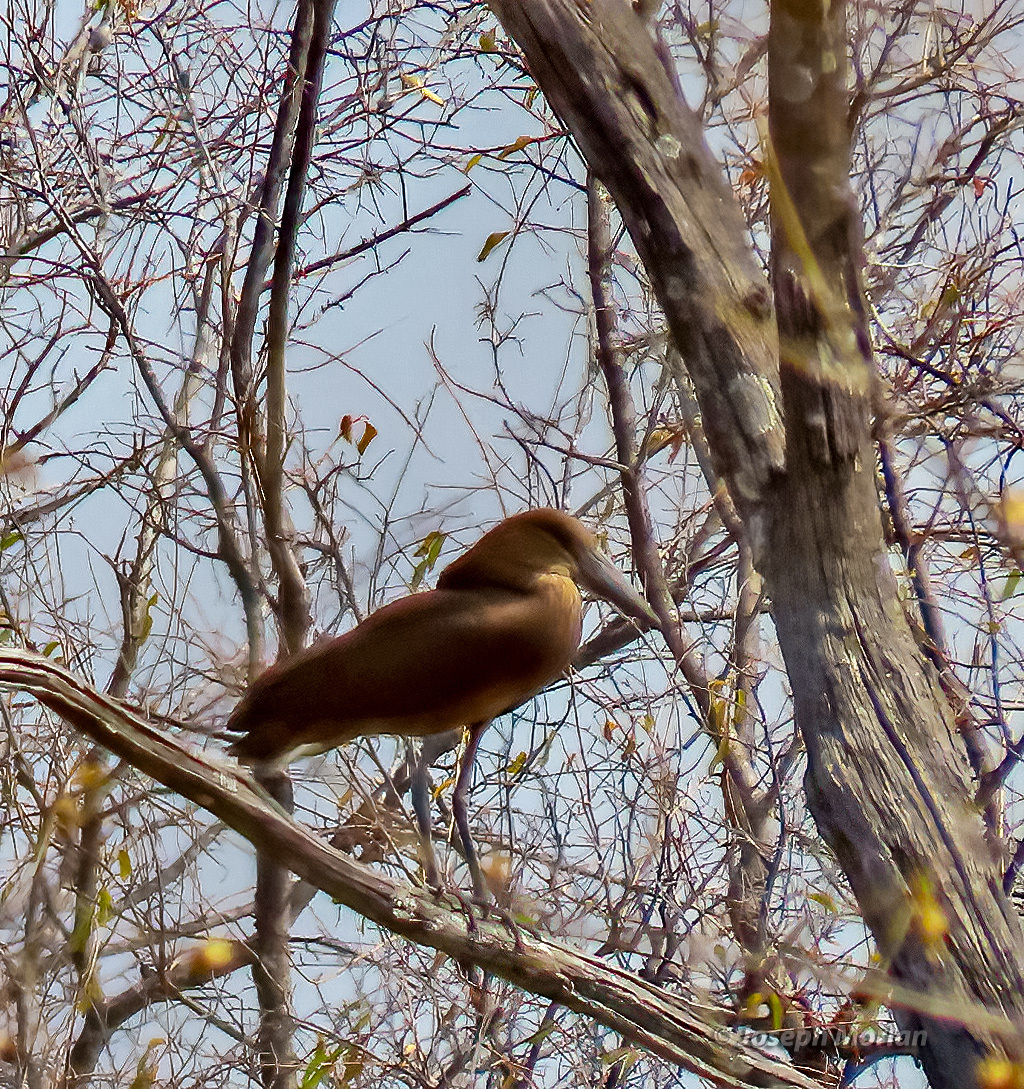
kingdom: Animalia
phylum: Chordata
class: Aves
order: Pelecaniformes
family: Scopidae
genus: Scopus
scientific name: Scopus umbretta
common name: Hamerkop
